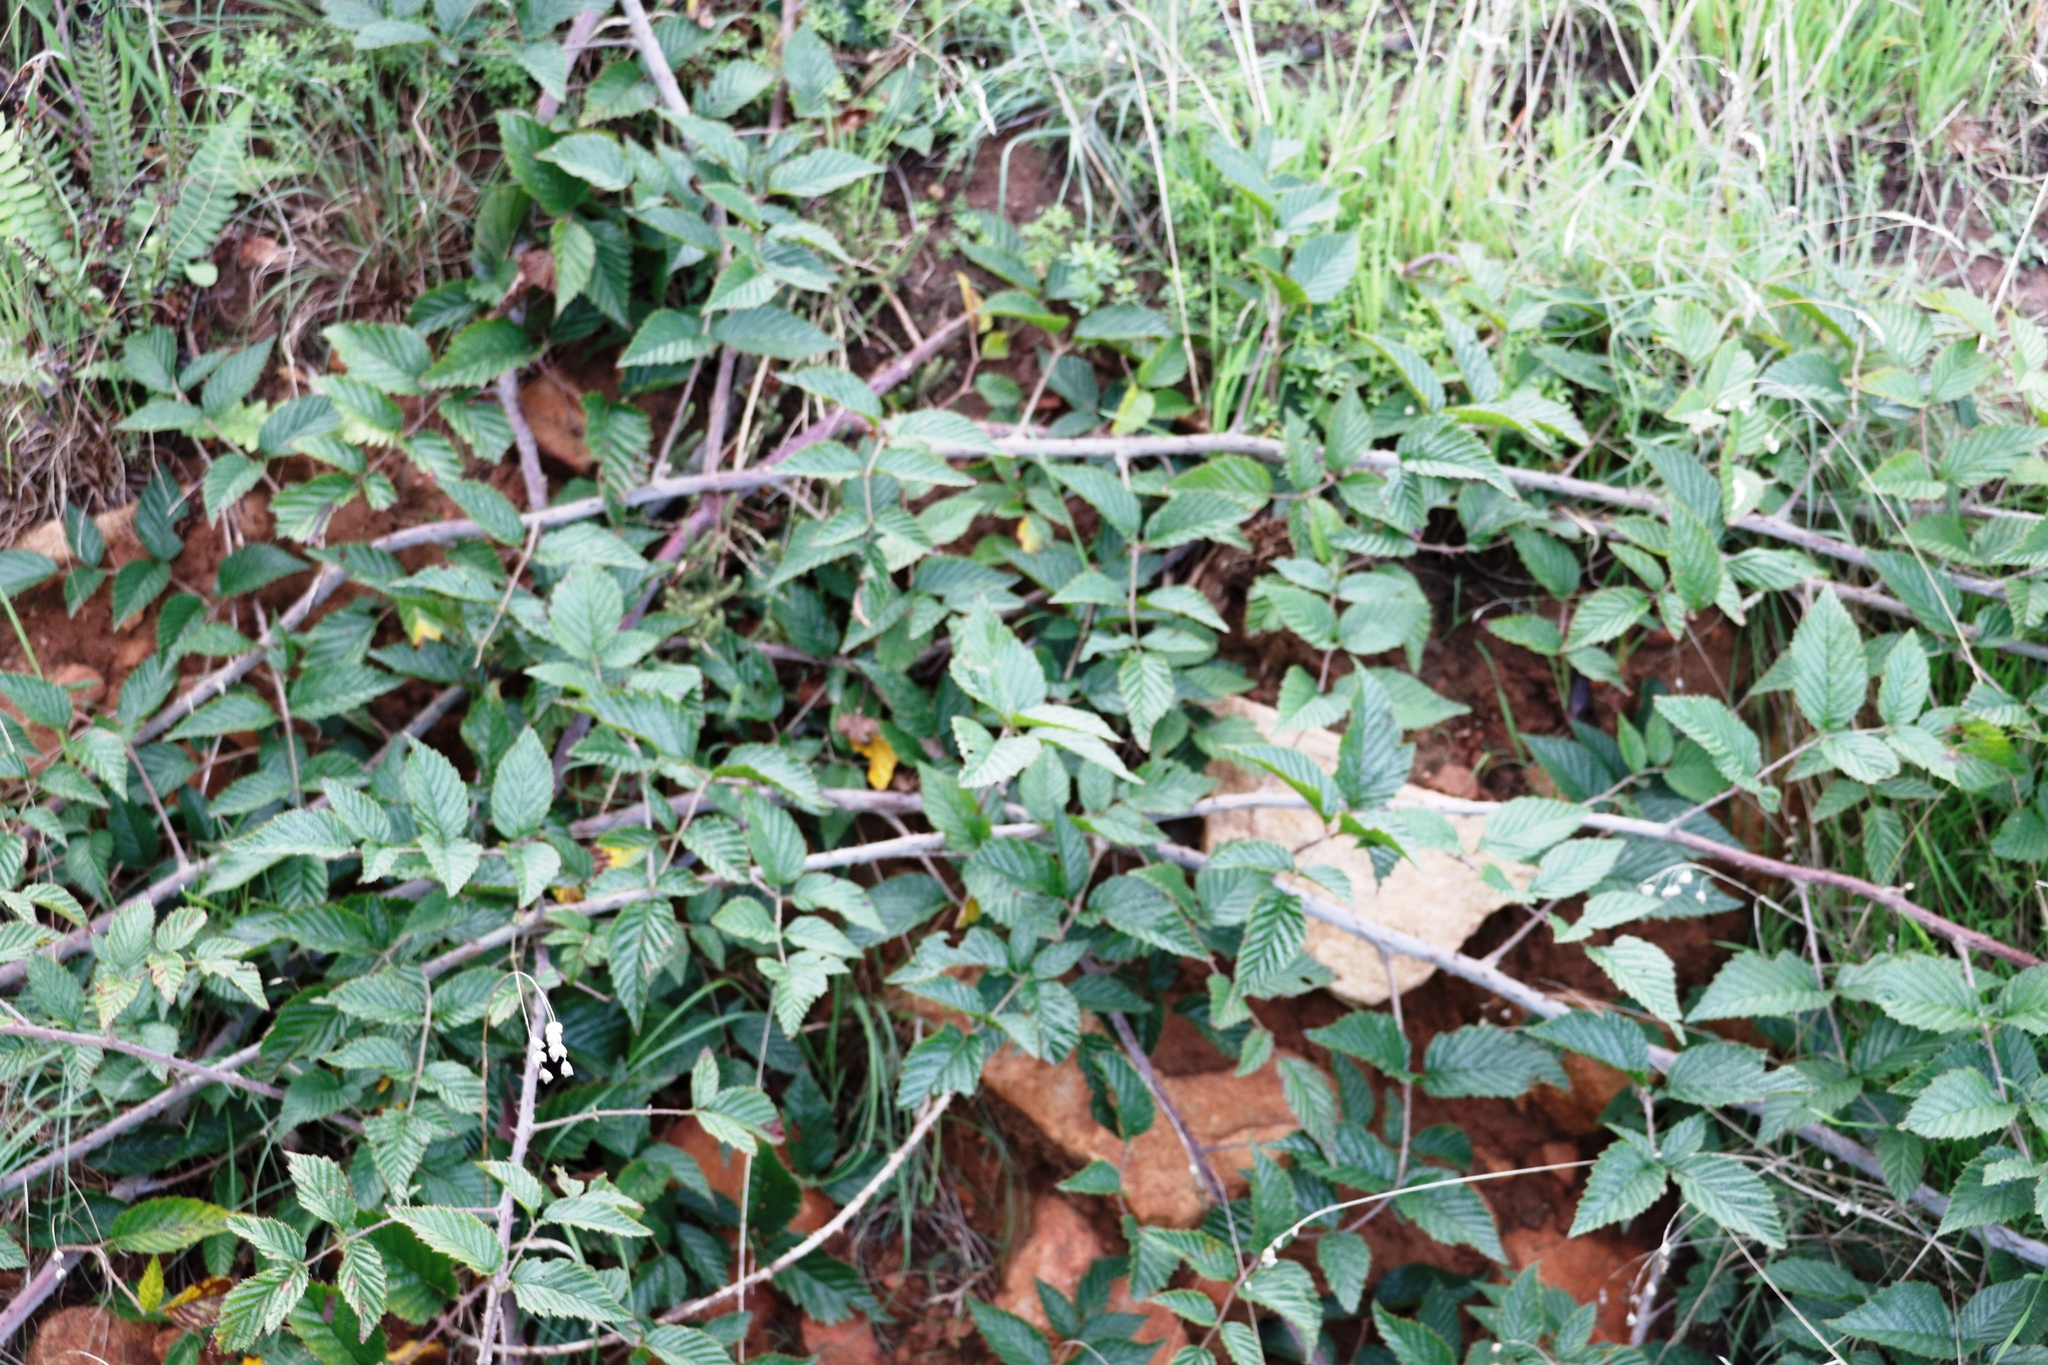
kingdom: Plantae
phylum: Tracheophyta
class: Magnoliopsida
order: Rosales
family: Rosaceae
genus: Rubus
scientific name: Rubus pinnatus
